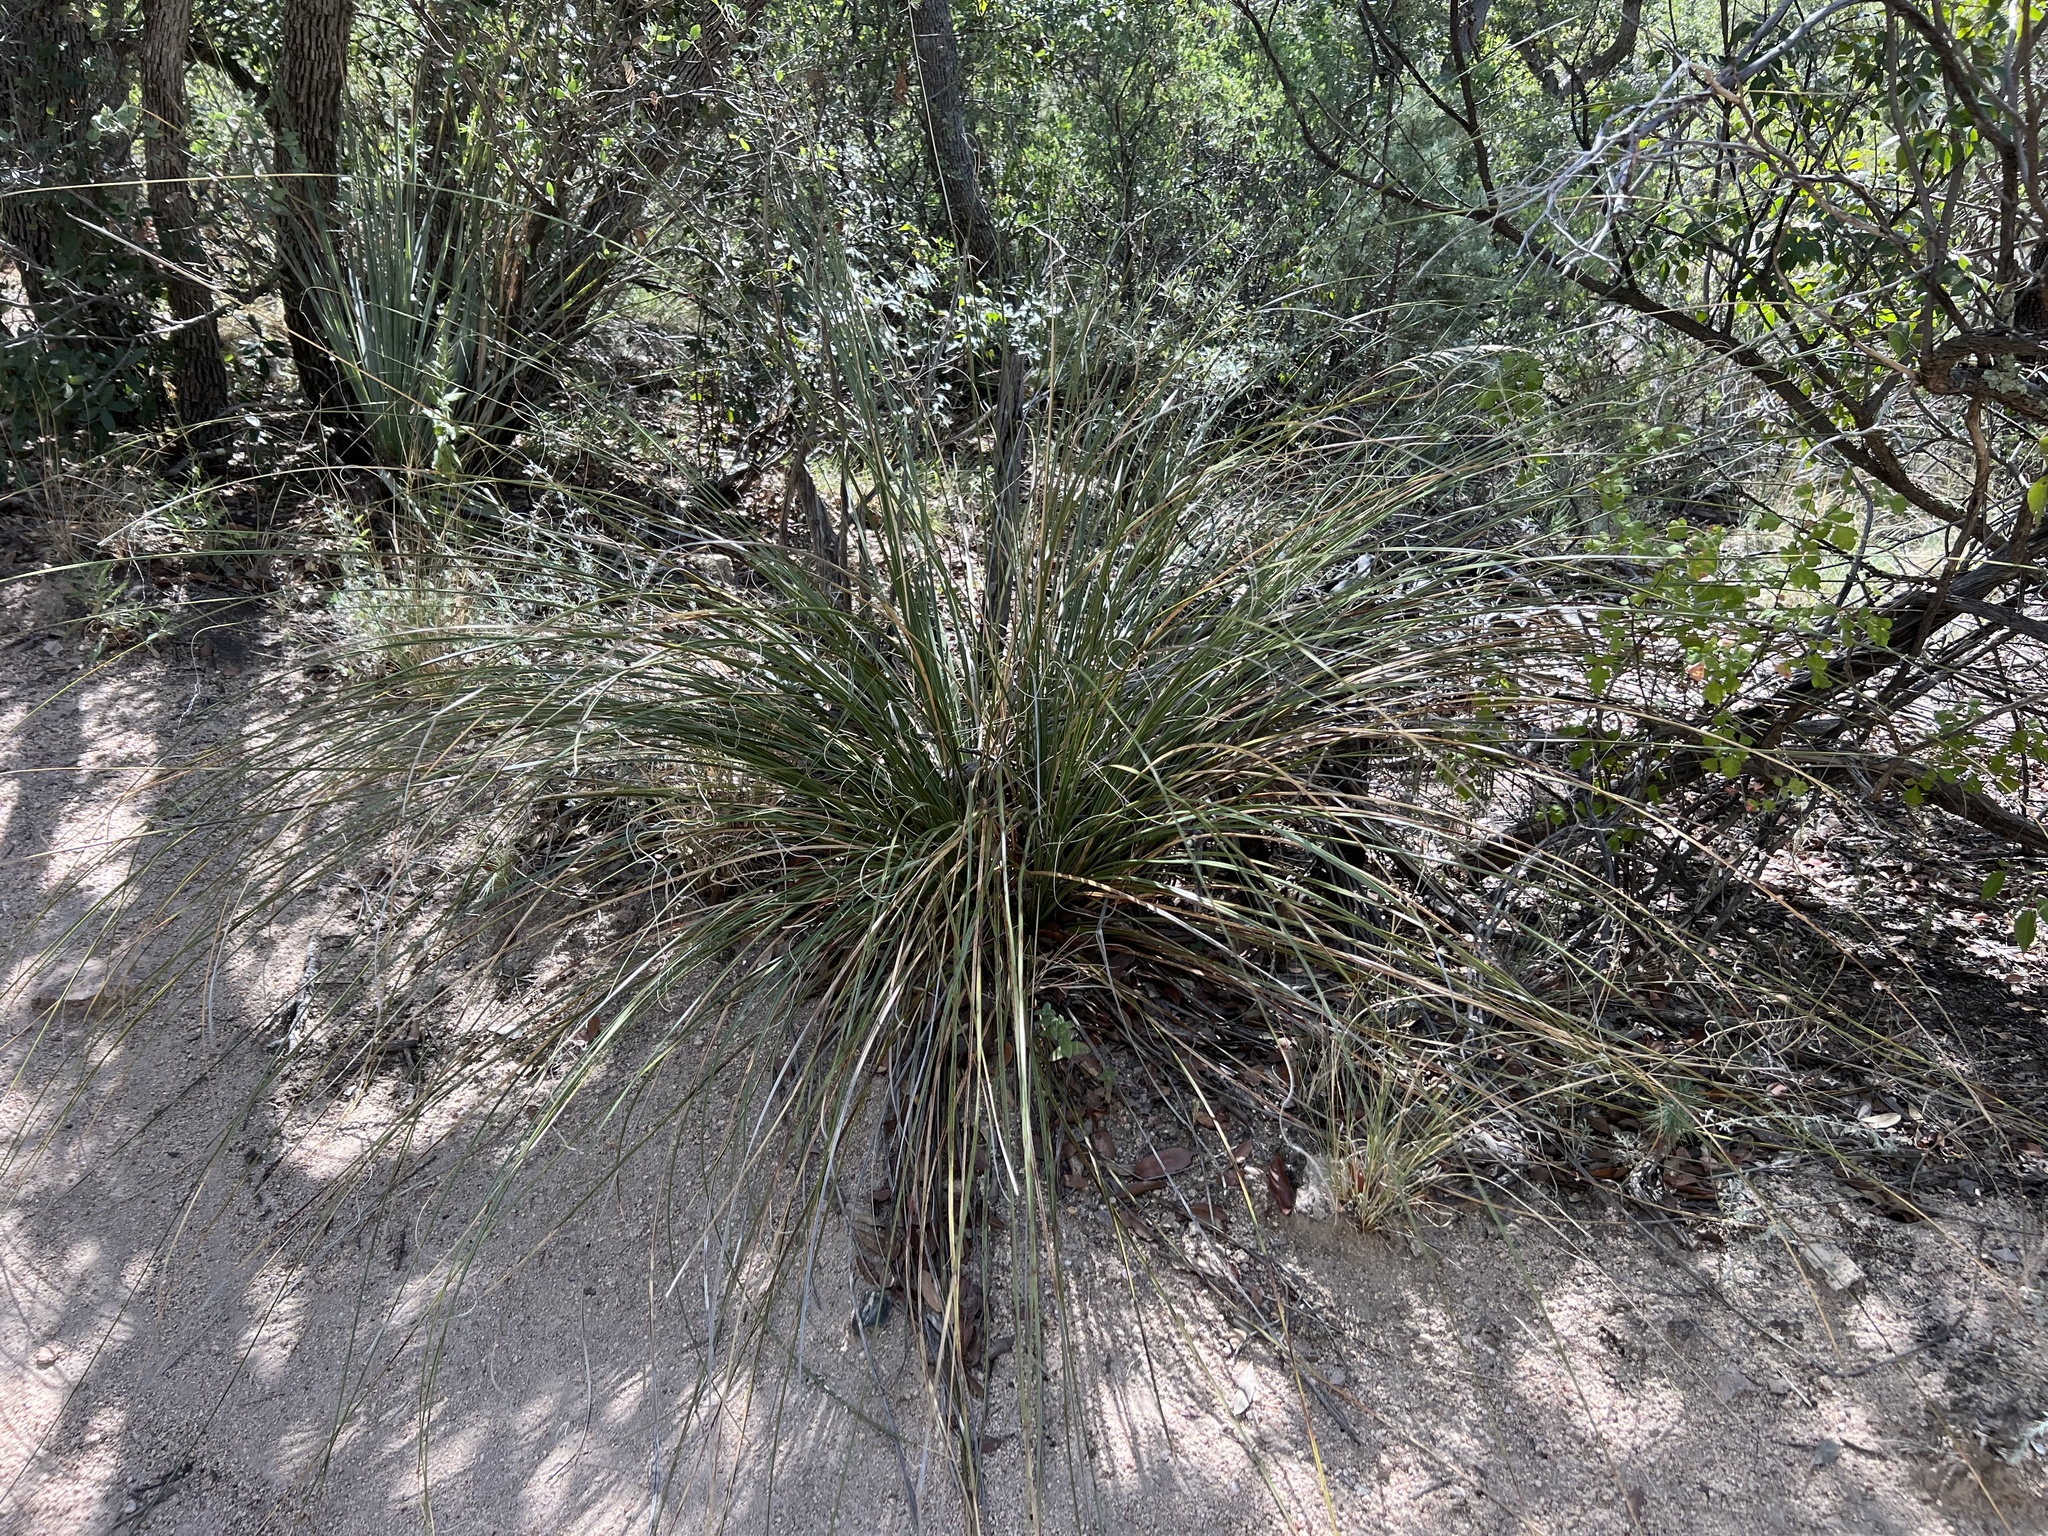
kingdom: Plantae
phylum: Tracheophyta
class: Liliopsida
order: Asparagales
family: Asparagaceae
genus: Nolina
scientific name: Nolina microcarpa
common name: Bear-grass
